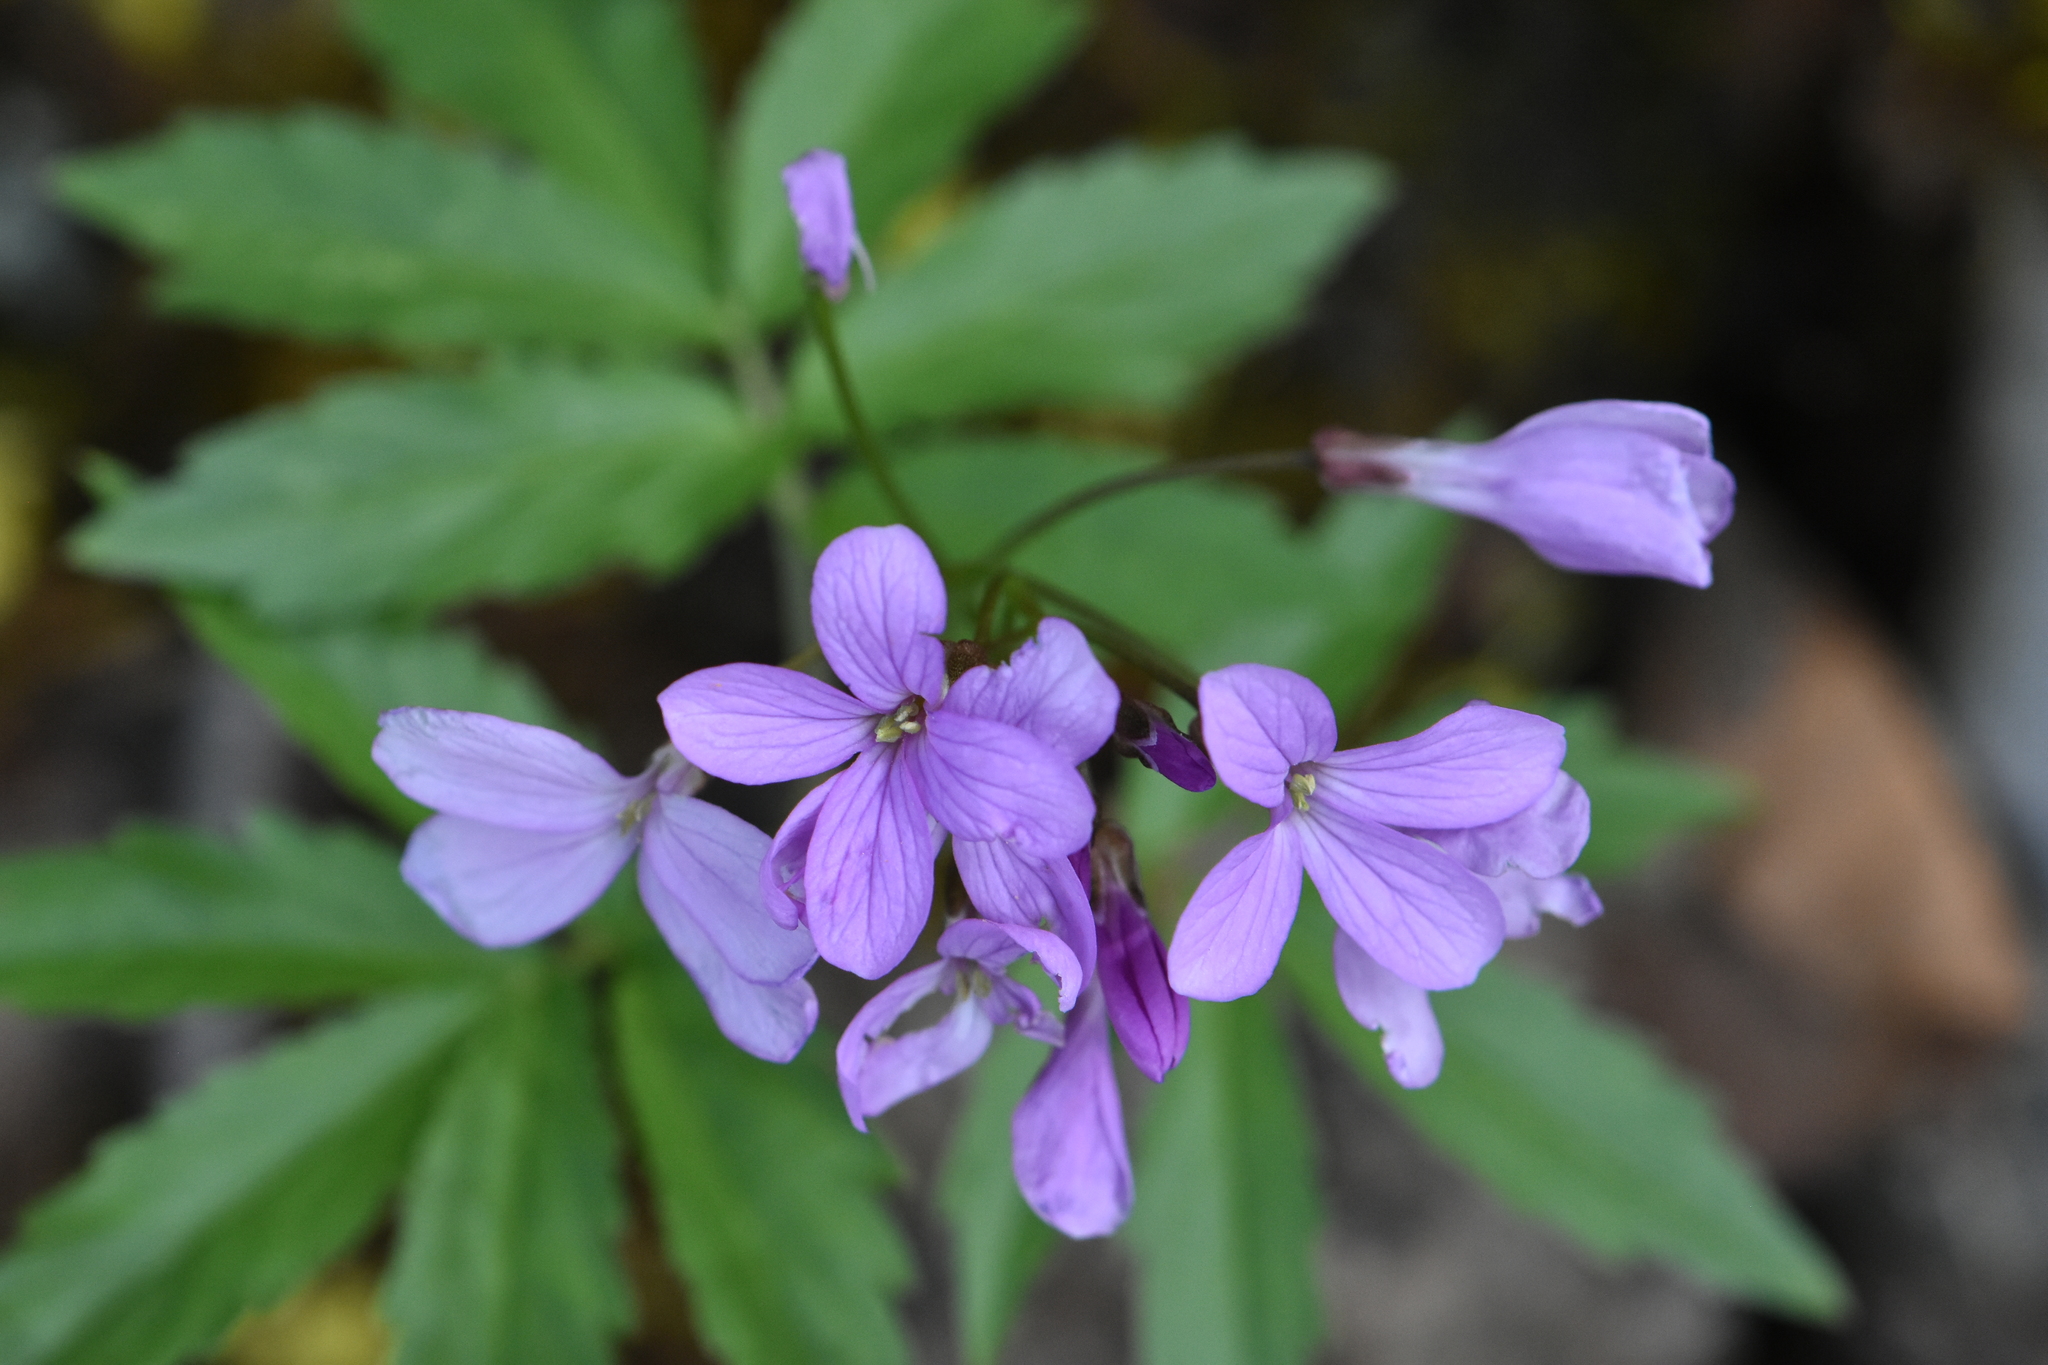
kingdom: Plantae
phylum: Tracheophyta
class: Magnoliopsida
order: Brassicales
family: Brassicaceae
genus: Cardamine
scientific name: Cardamine quinquefolia
